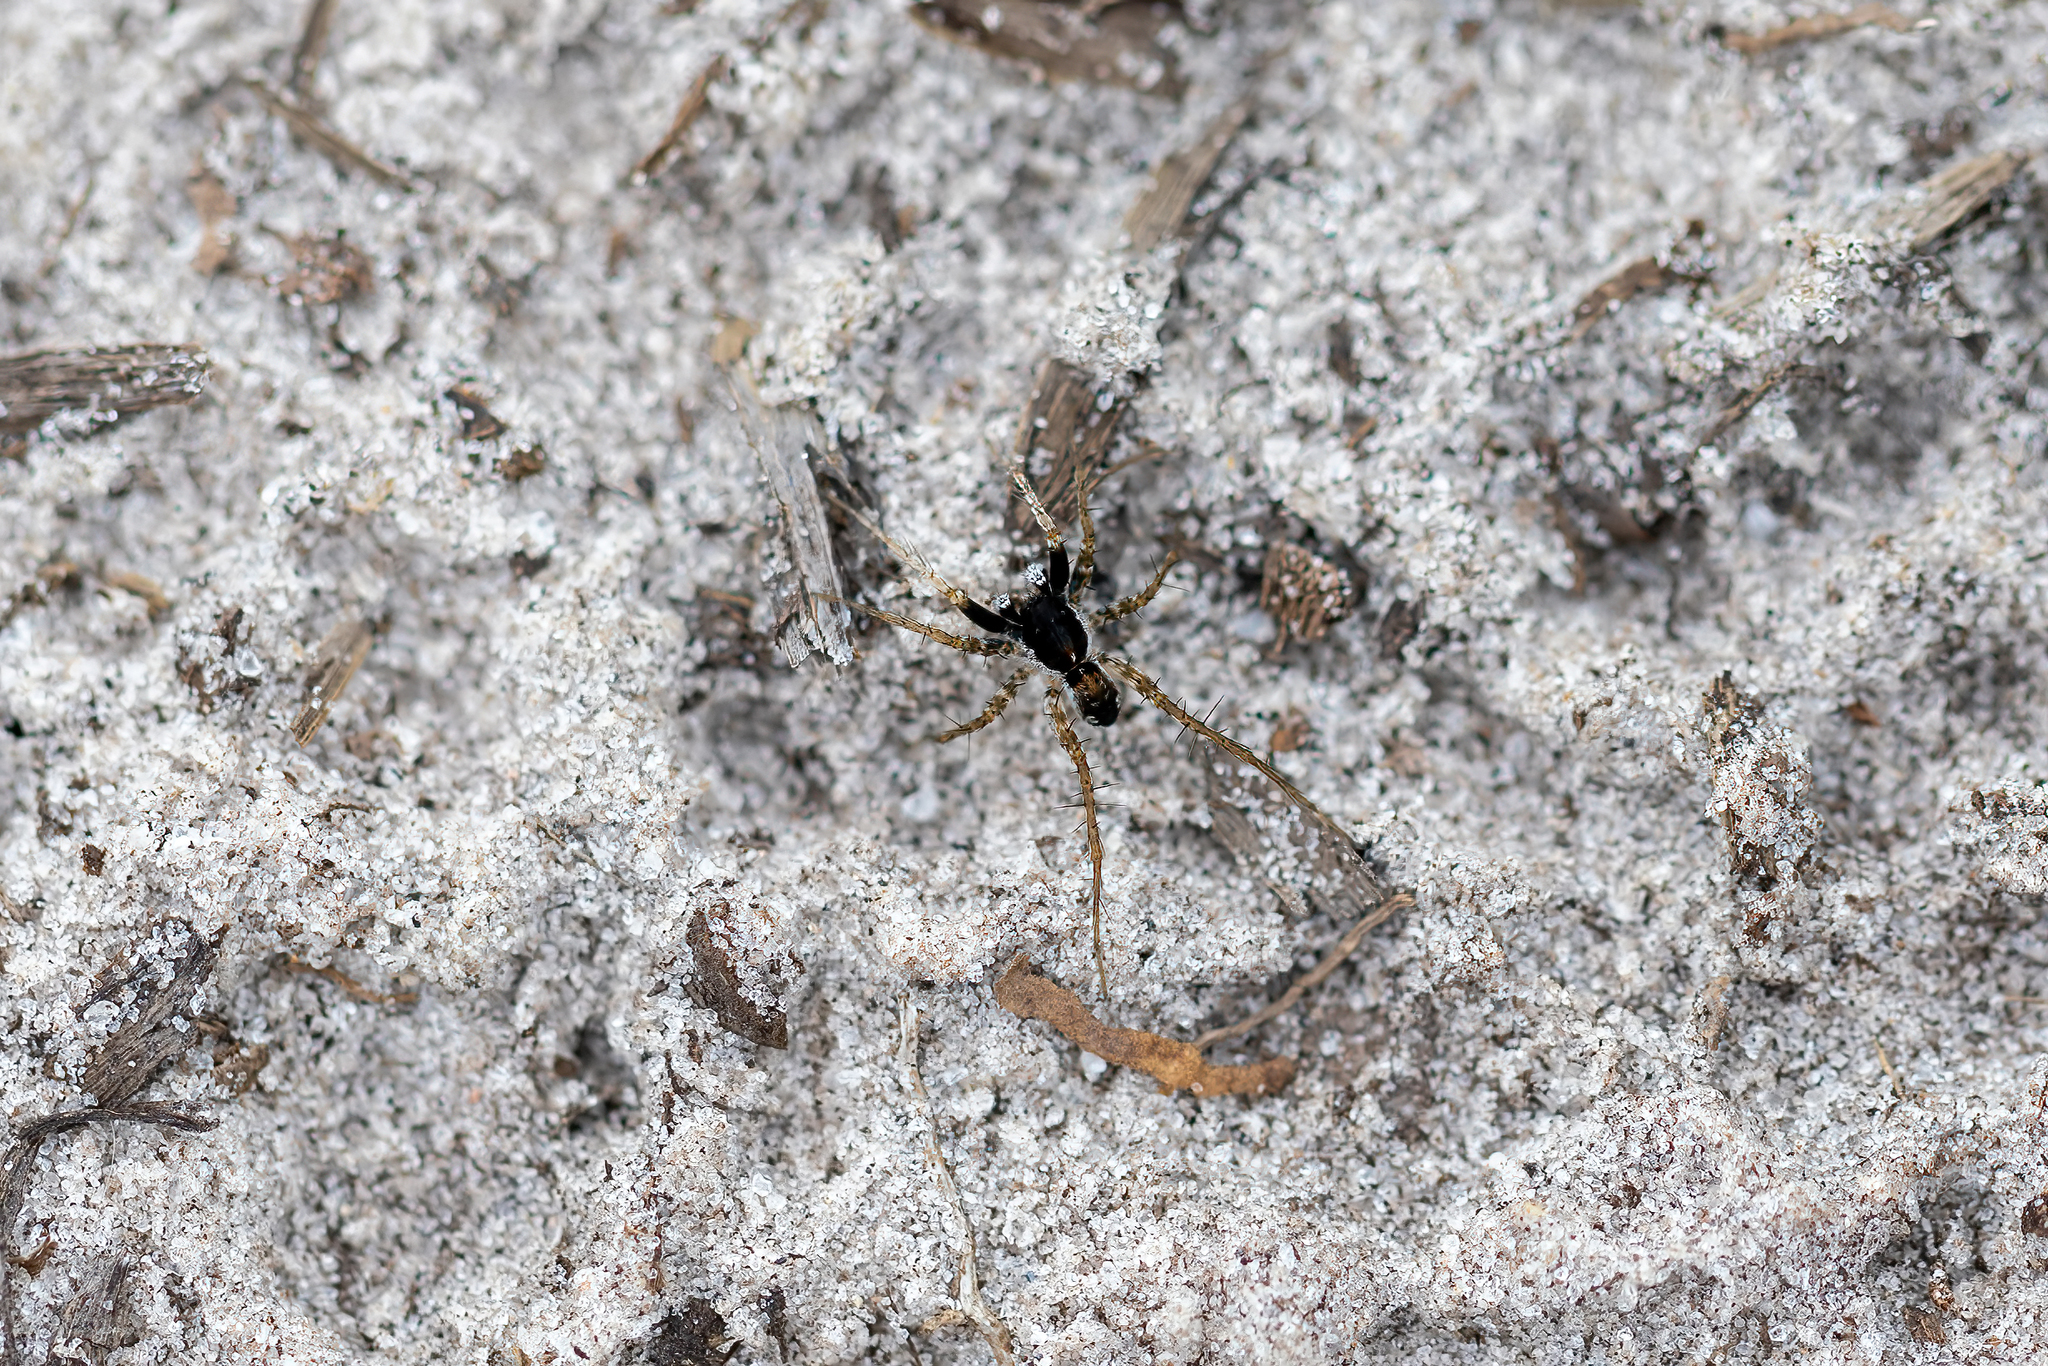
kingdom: Animalia
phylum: Arthropoda
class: Arachnida
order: Araneae
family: Lycosidae
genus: Pardosa
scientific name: Pardosa parvula
